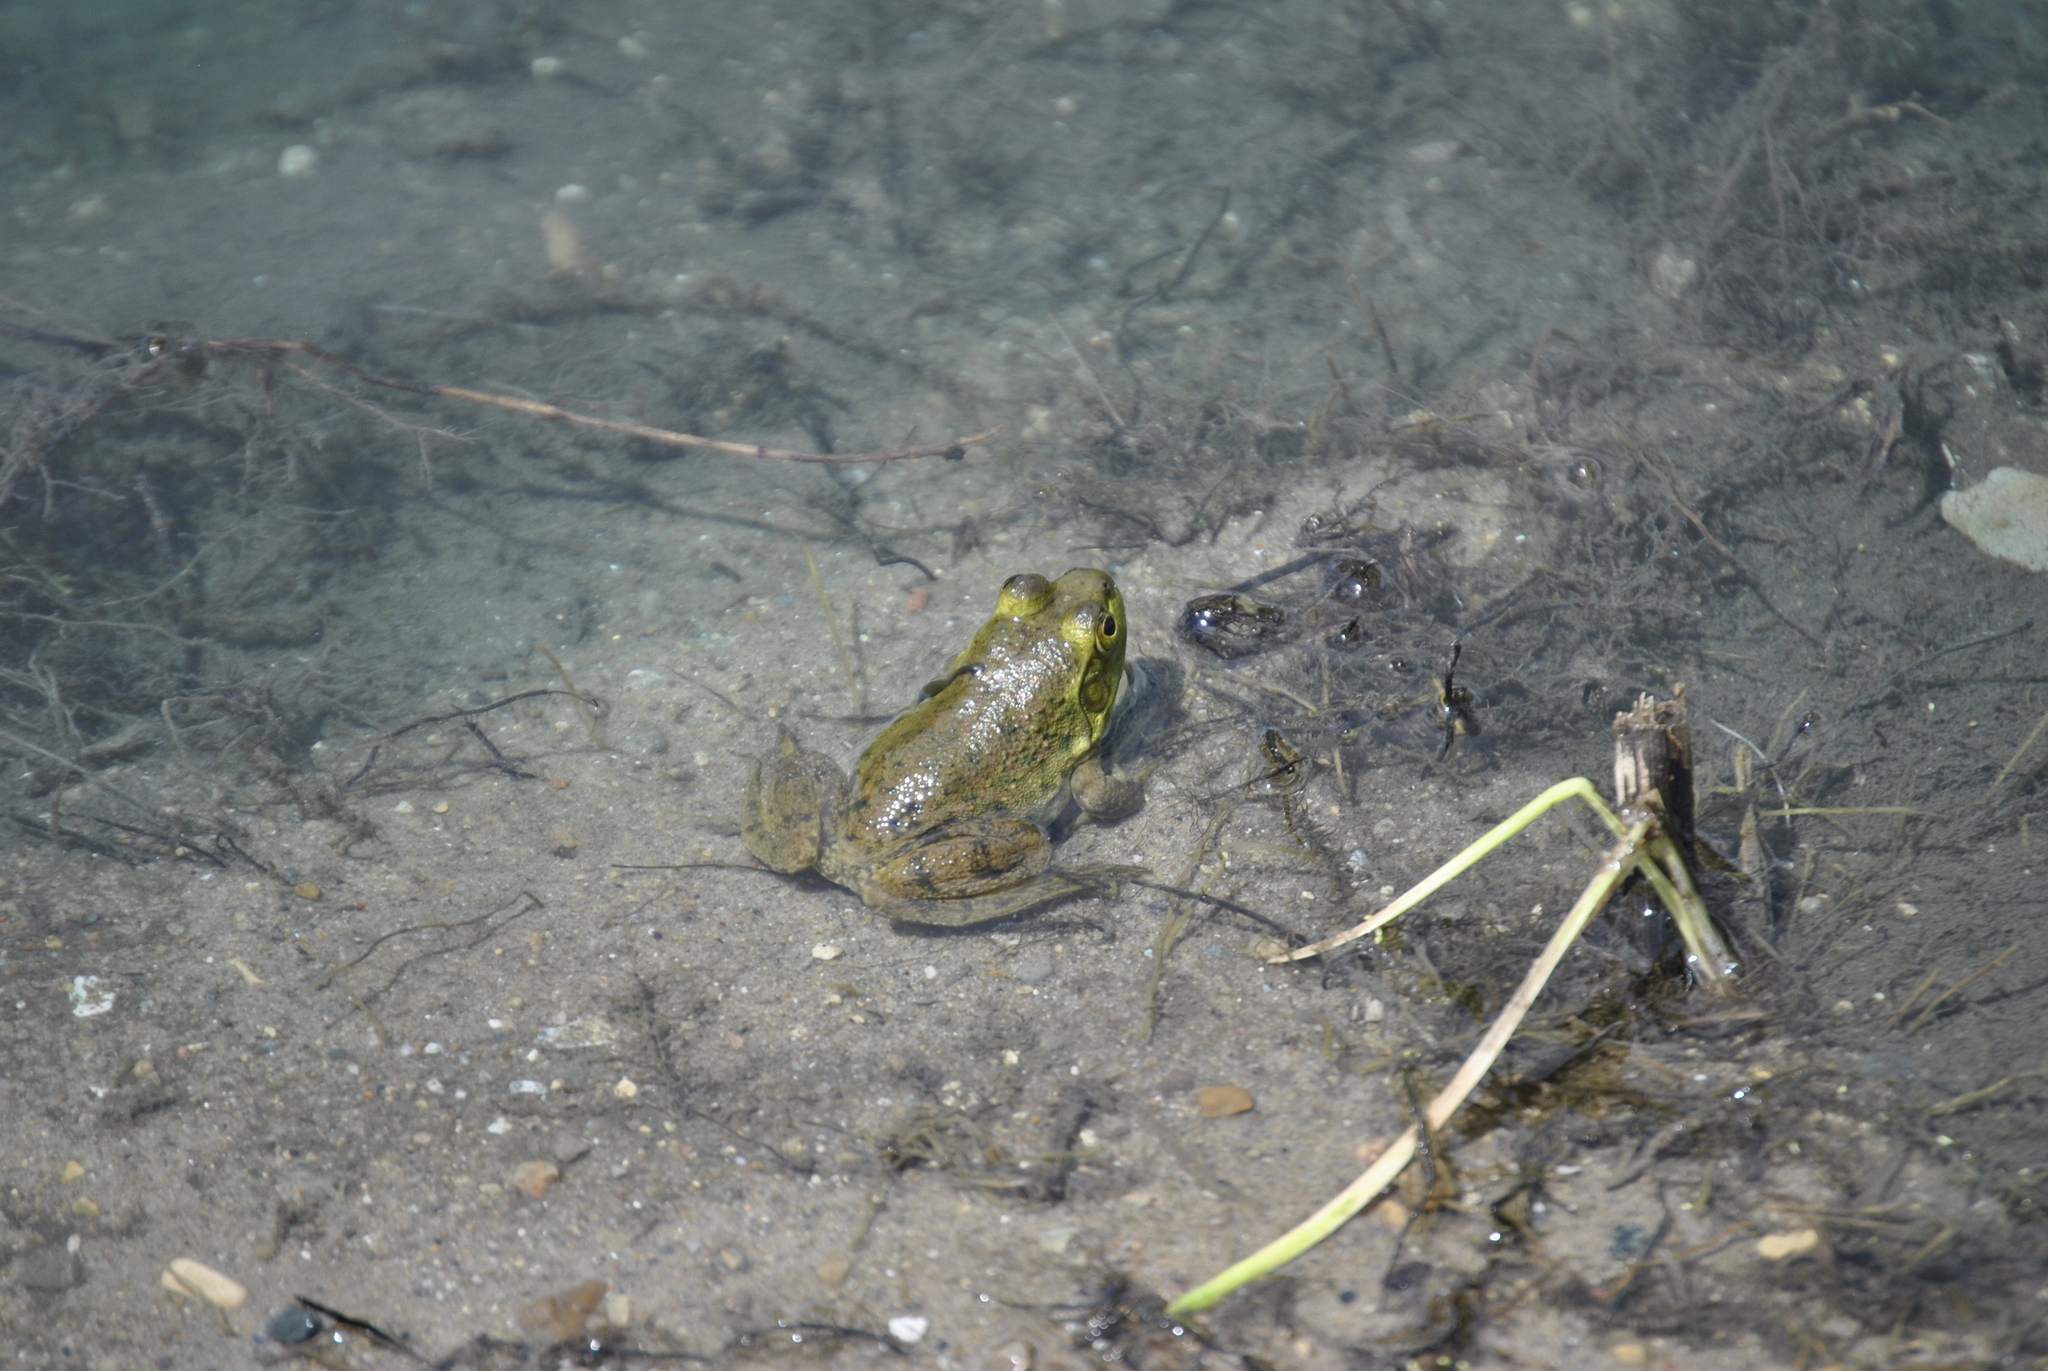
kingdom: Animalia
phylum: Chordata
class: Amphibia
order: Anura
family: Ranidae
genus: Lithobates
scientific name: Lithobates catesbeianus
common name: American bullfrog
